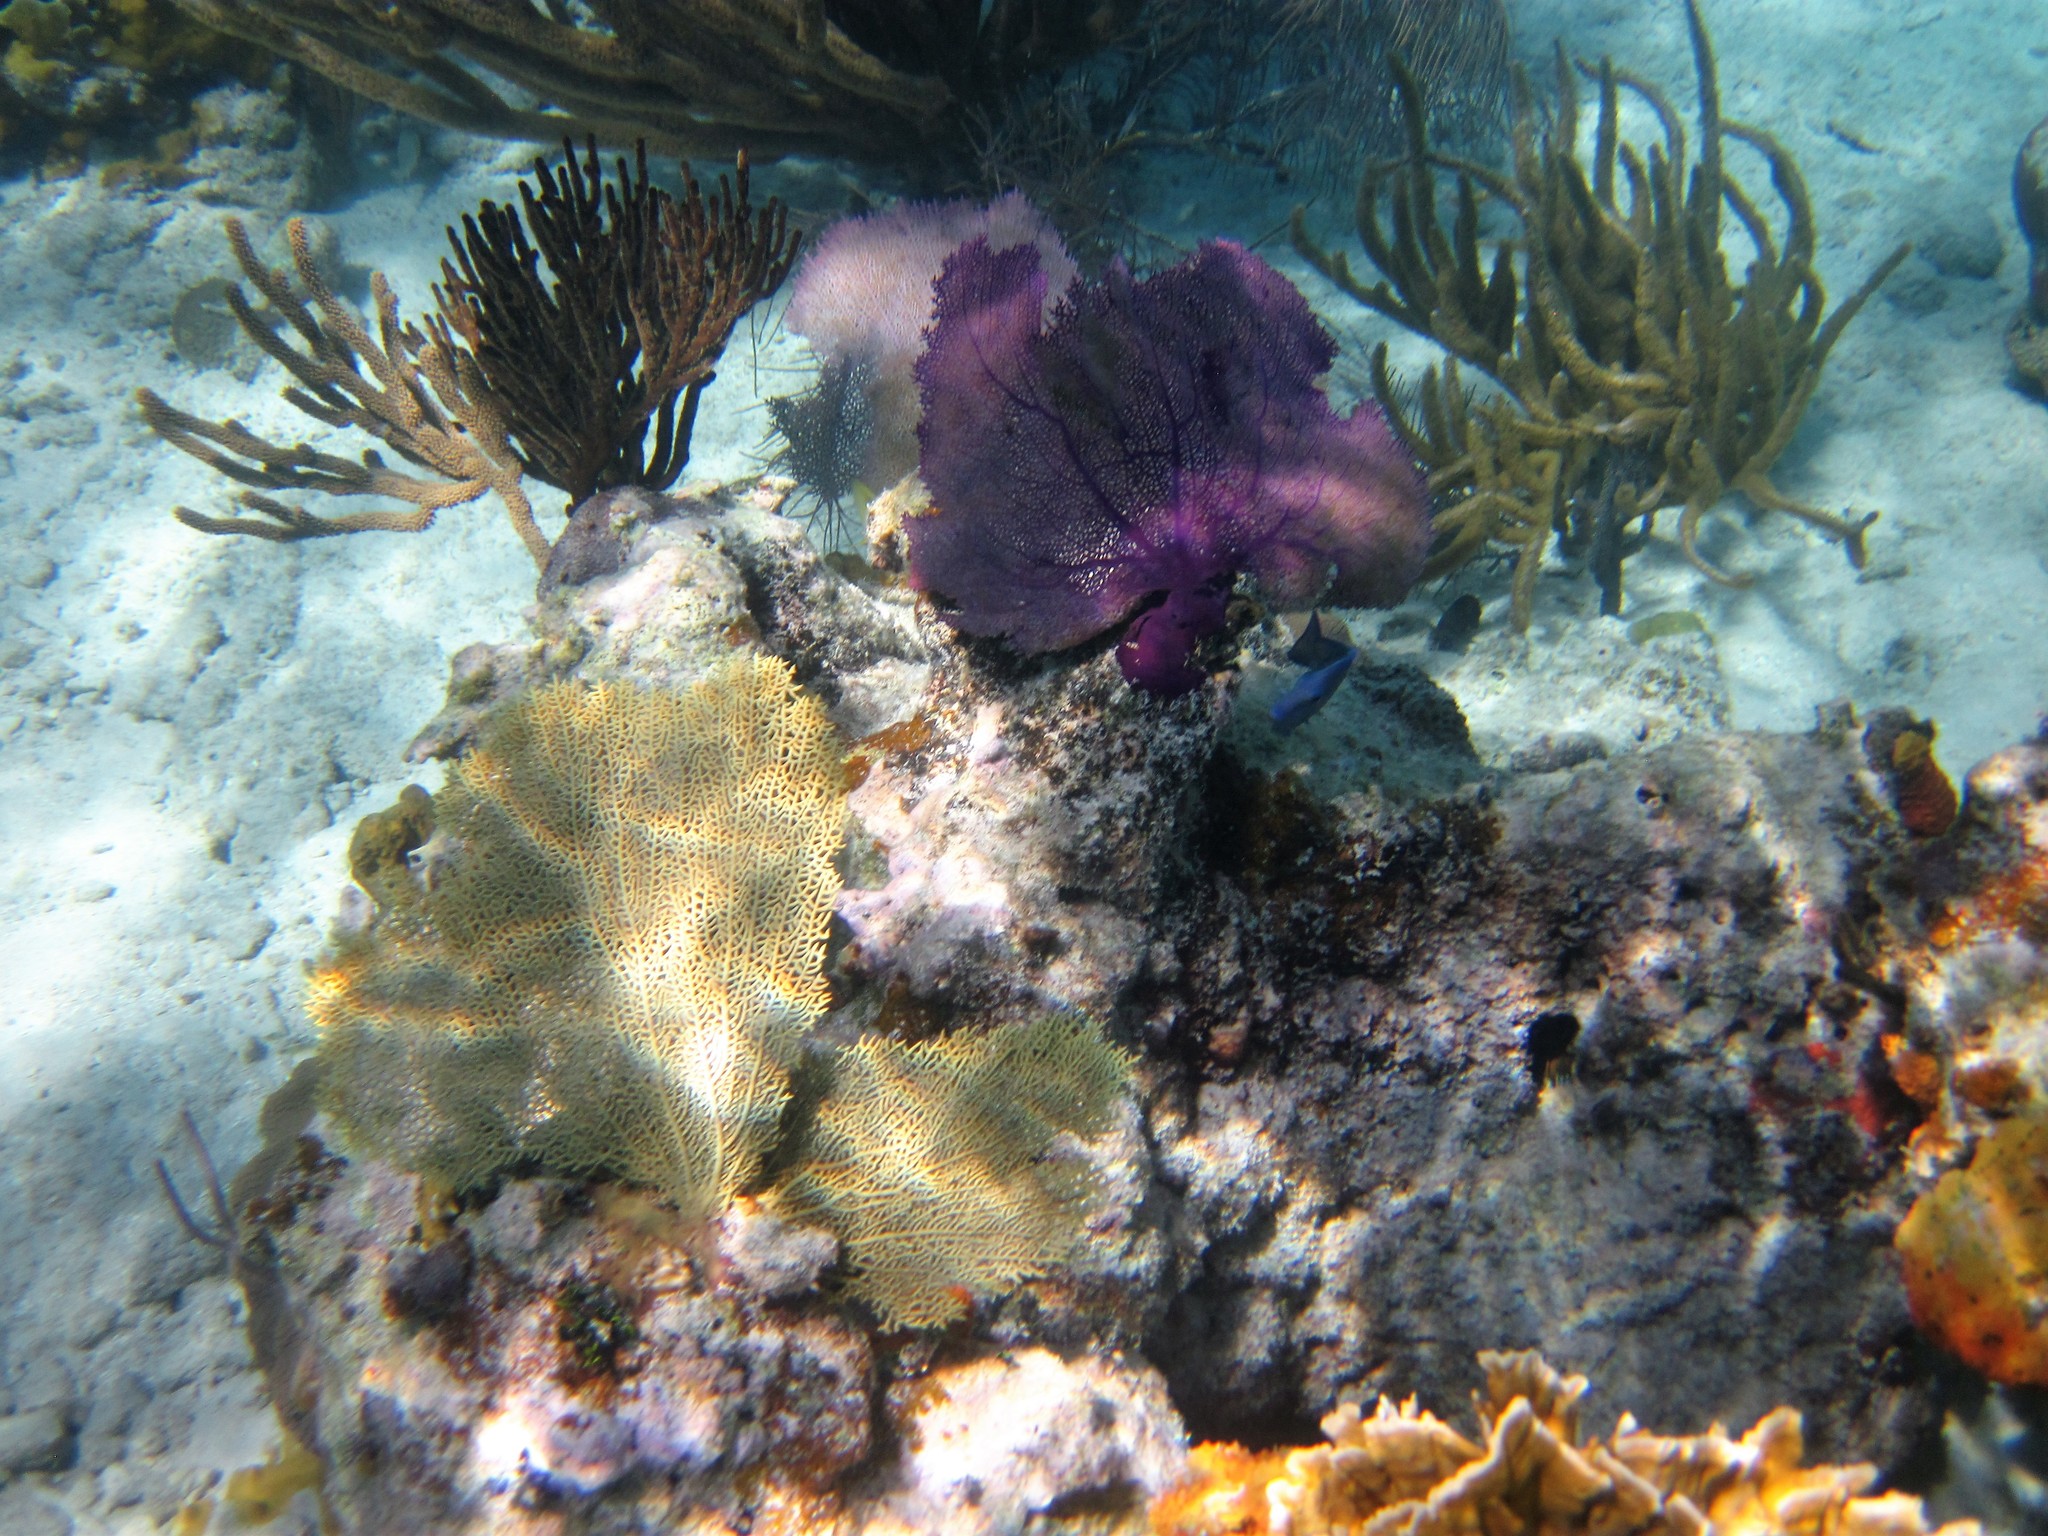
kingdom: Animalia
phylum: Cnidaria
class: Anthozoa
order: Malacalcyonacea
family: Gorgoniidae
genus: Gorgonia
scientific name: Gorgonia ventalina
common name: Common sea fan
